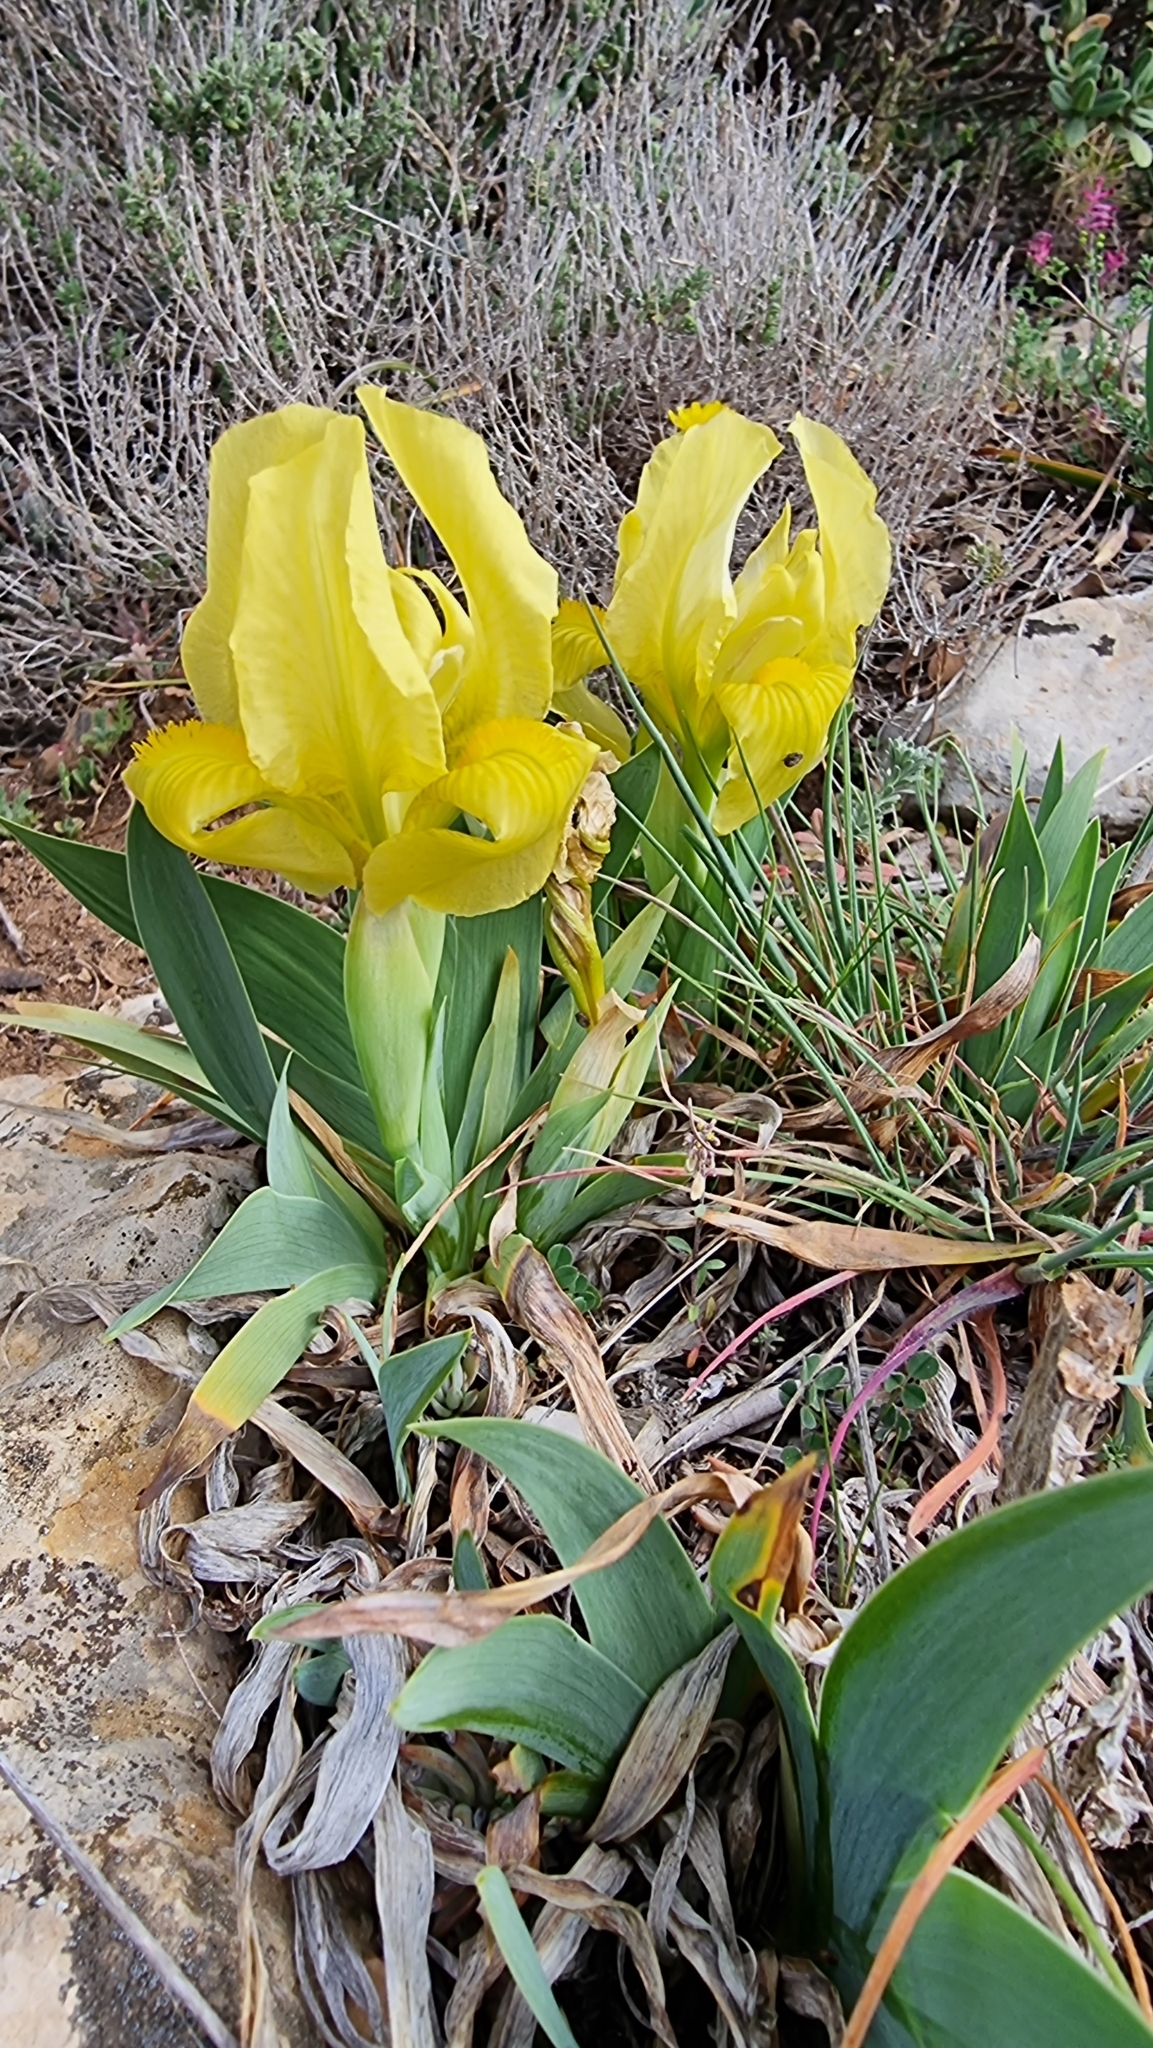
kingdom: Plantae
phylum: Tracheophyta
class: Liliopsida
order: Asparagales
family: Iridaceae
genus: Iris
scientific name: Iris lutescens
